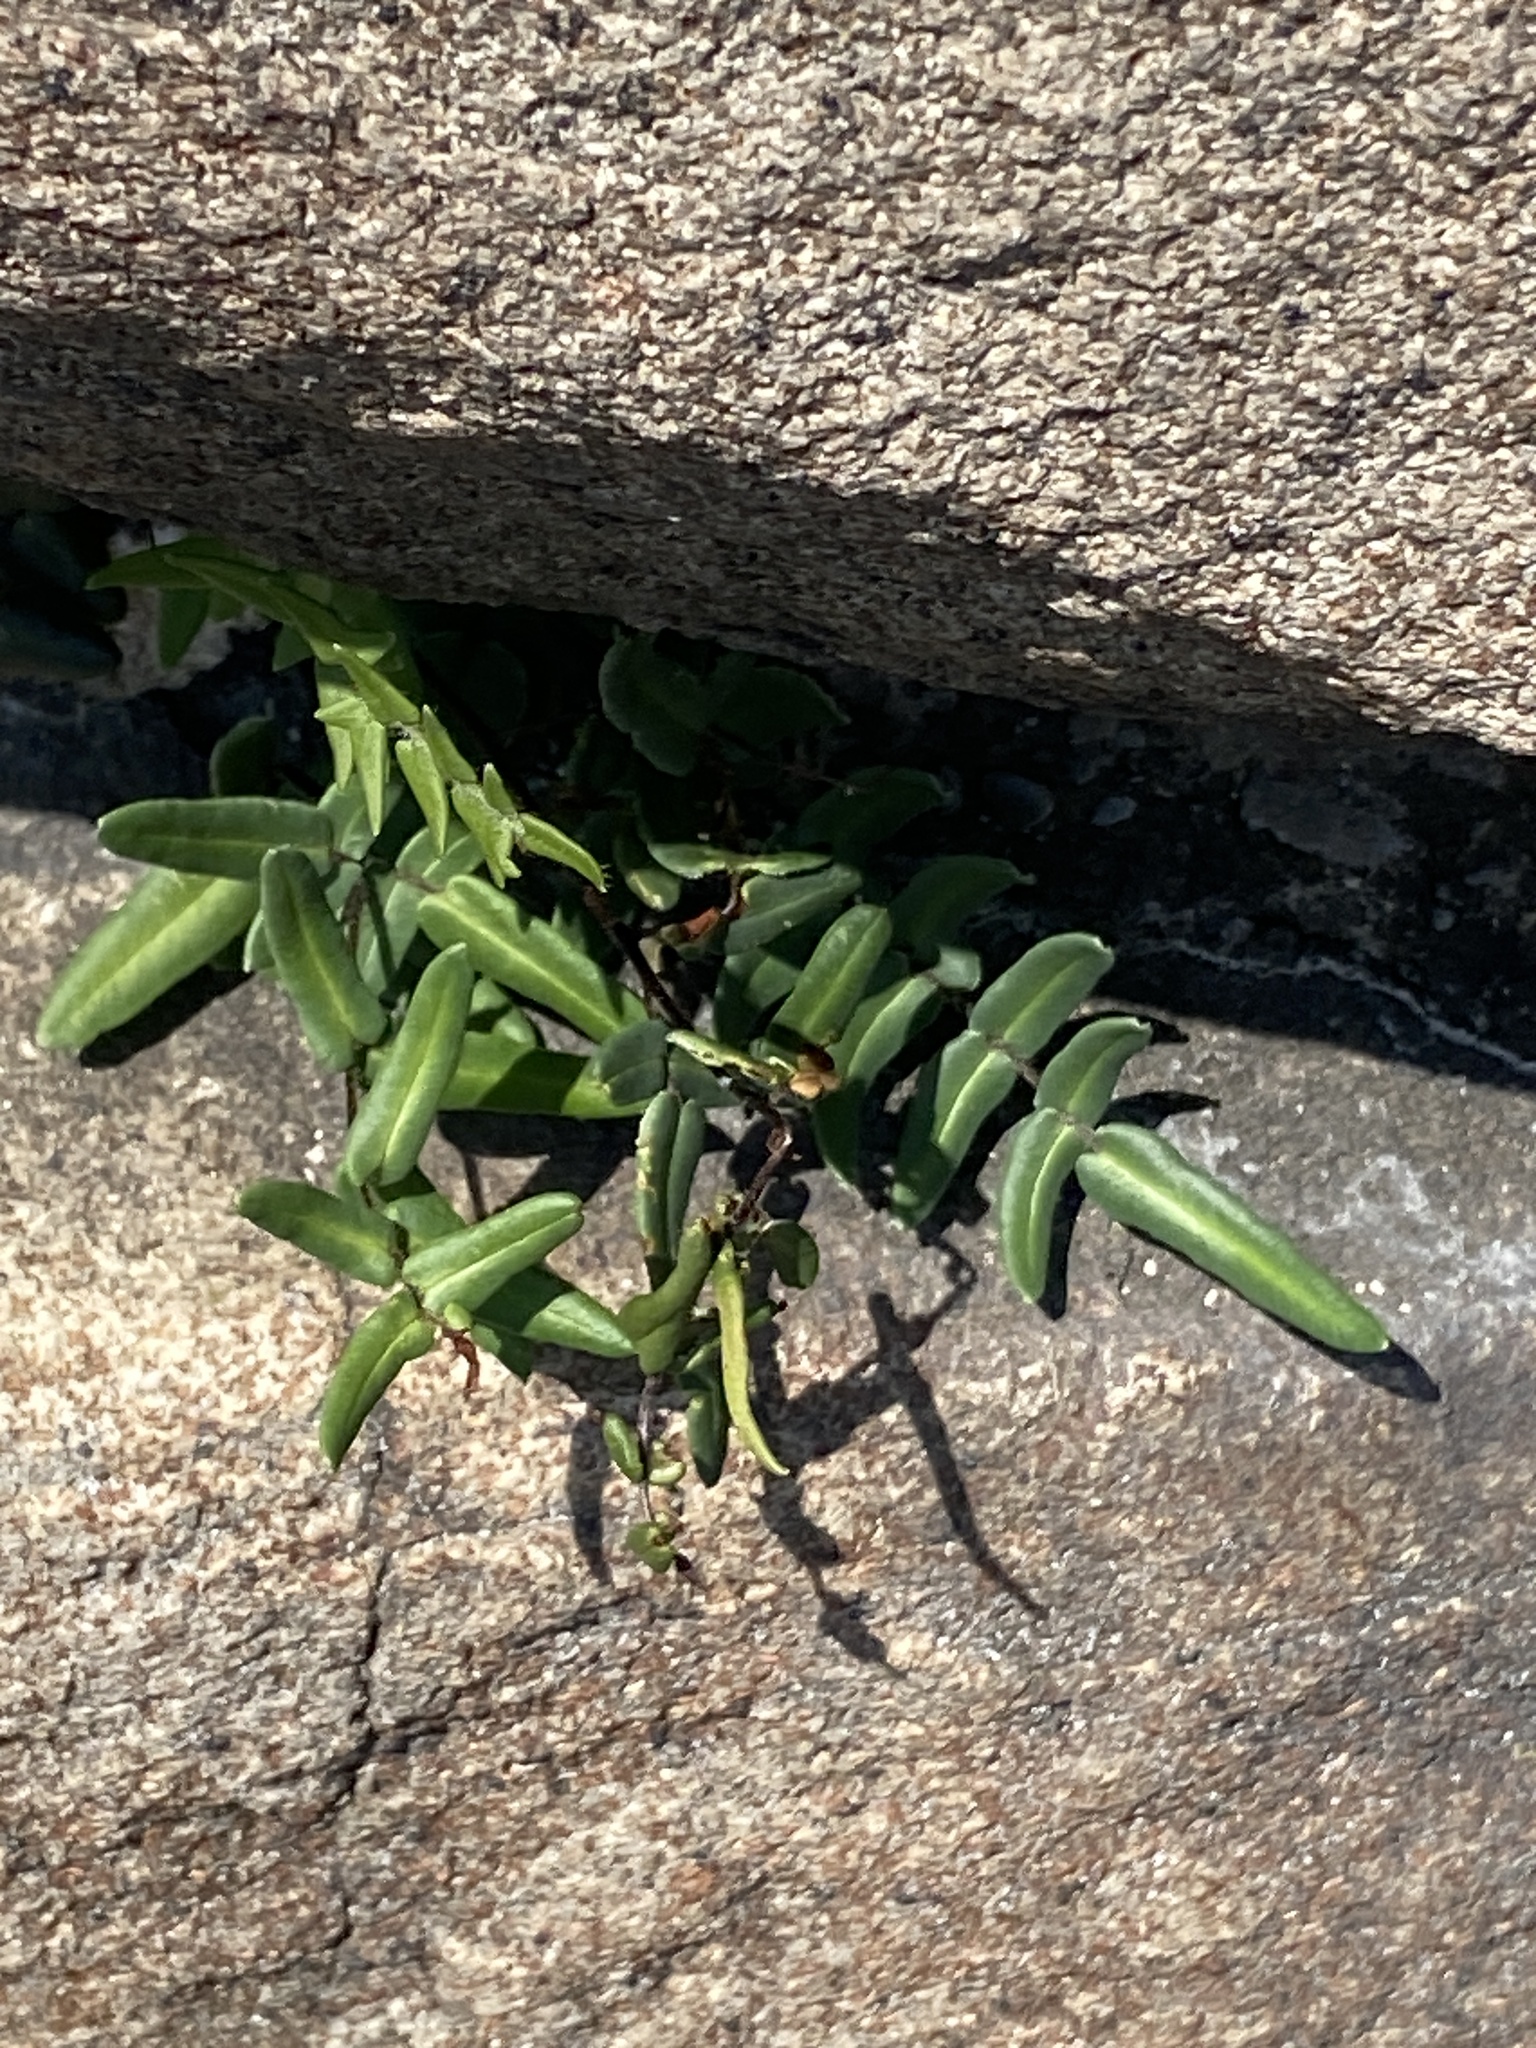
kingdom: Plantae
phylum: Tracheophyta
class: Polypodiopsida
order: Polypodiales
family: Pteridaceae
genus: Pellaea
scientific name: Pellaea atropurpurea
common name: Hairy cliffbrake
